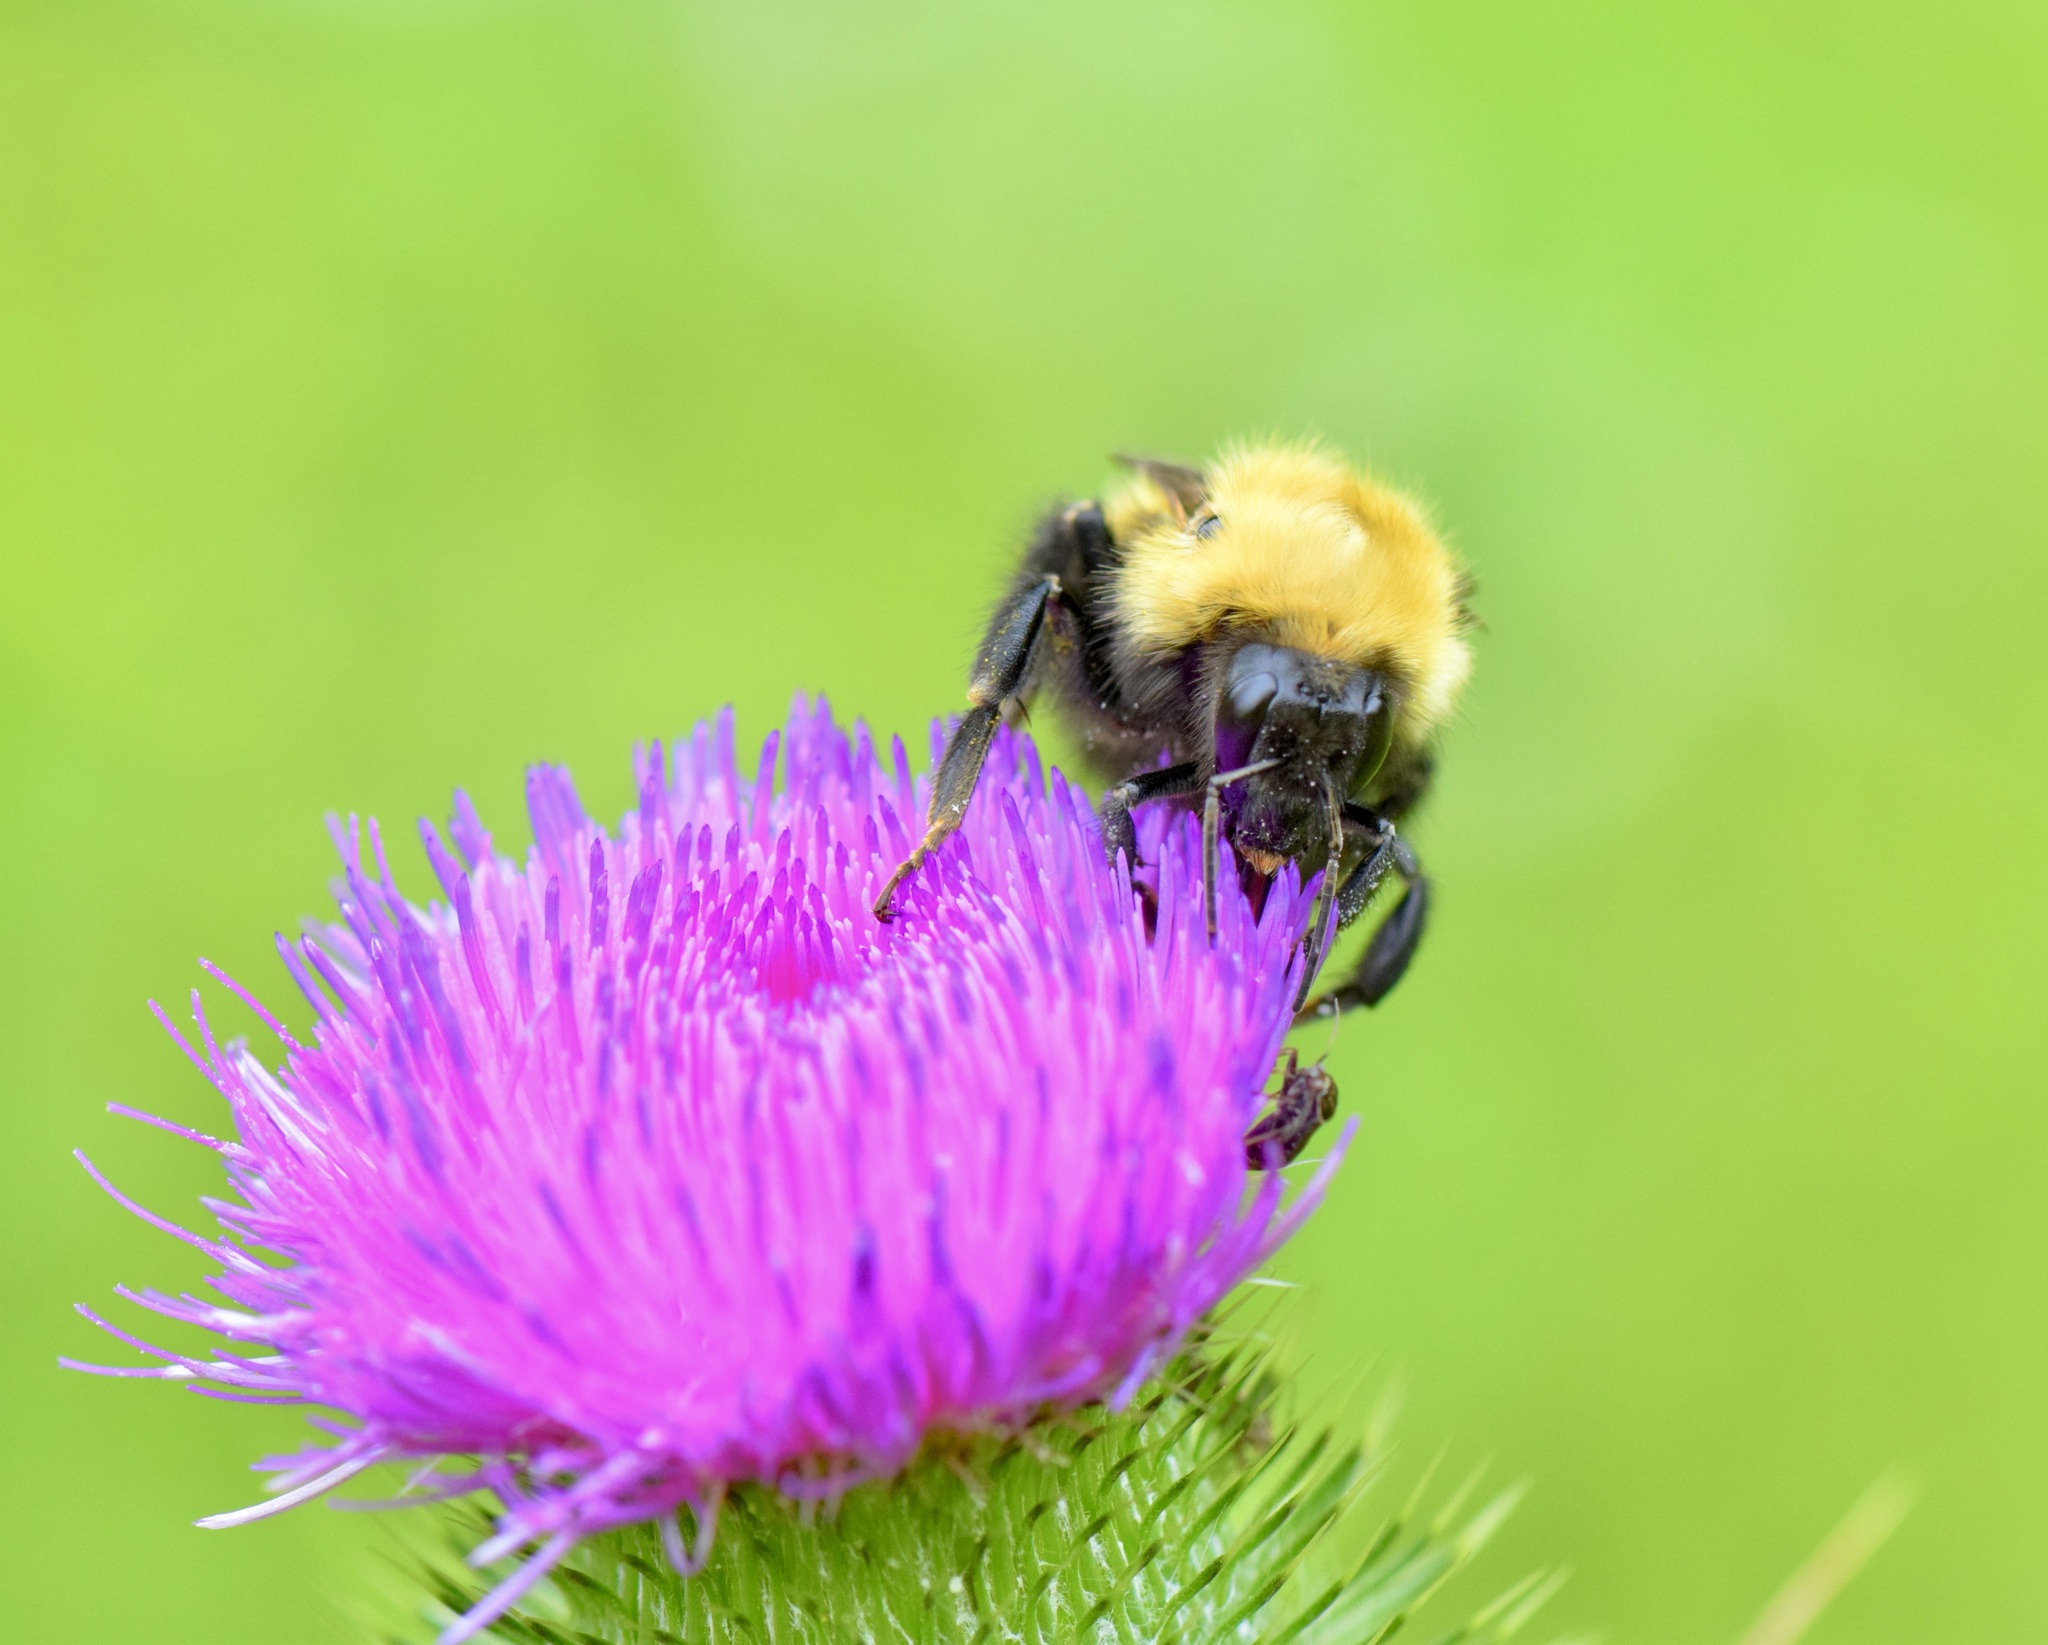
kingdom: Animalia
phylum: Arthropoda
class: Insecta
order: Hymenoptera
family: Apidae
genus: Bombus
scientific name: Bombus perplexus
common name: Confusing bumble bee
